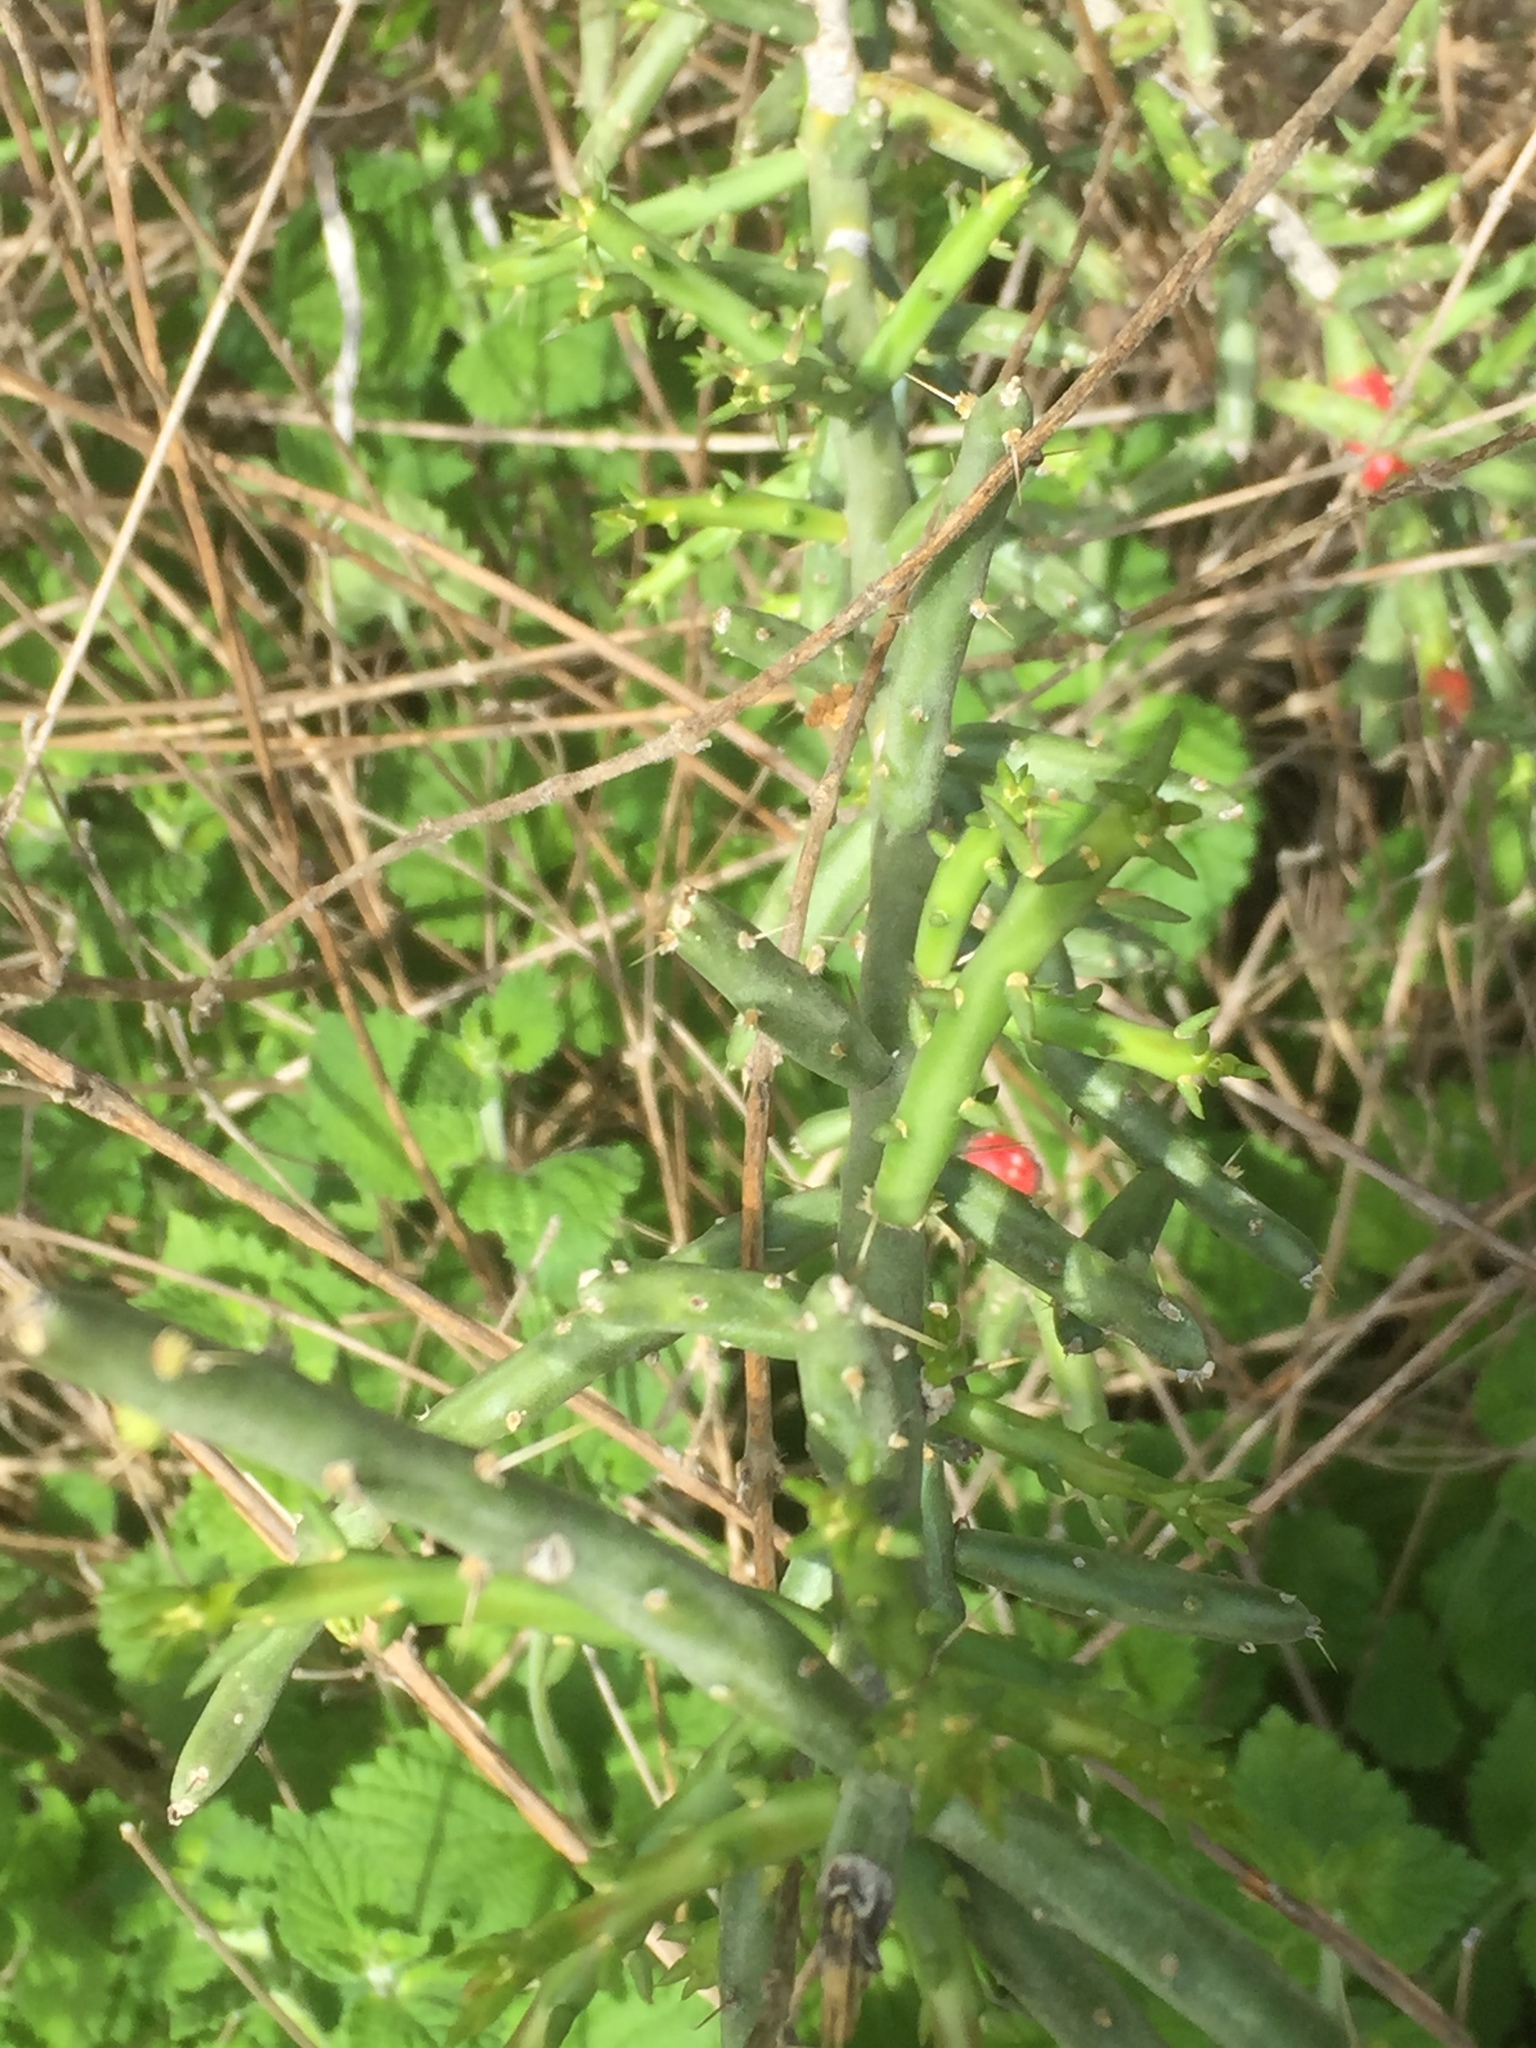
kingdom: Plantae
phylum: Tracheophyta
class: Magnoliopsida
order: Caryophyllales
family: Cactaceae
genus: Cylindropuntia
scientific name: Cylindropuntia leptocaulis
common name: Christmas cactus
